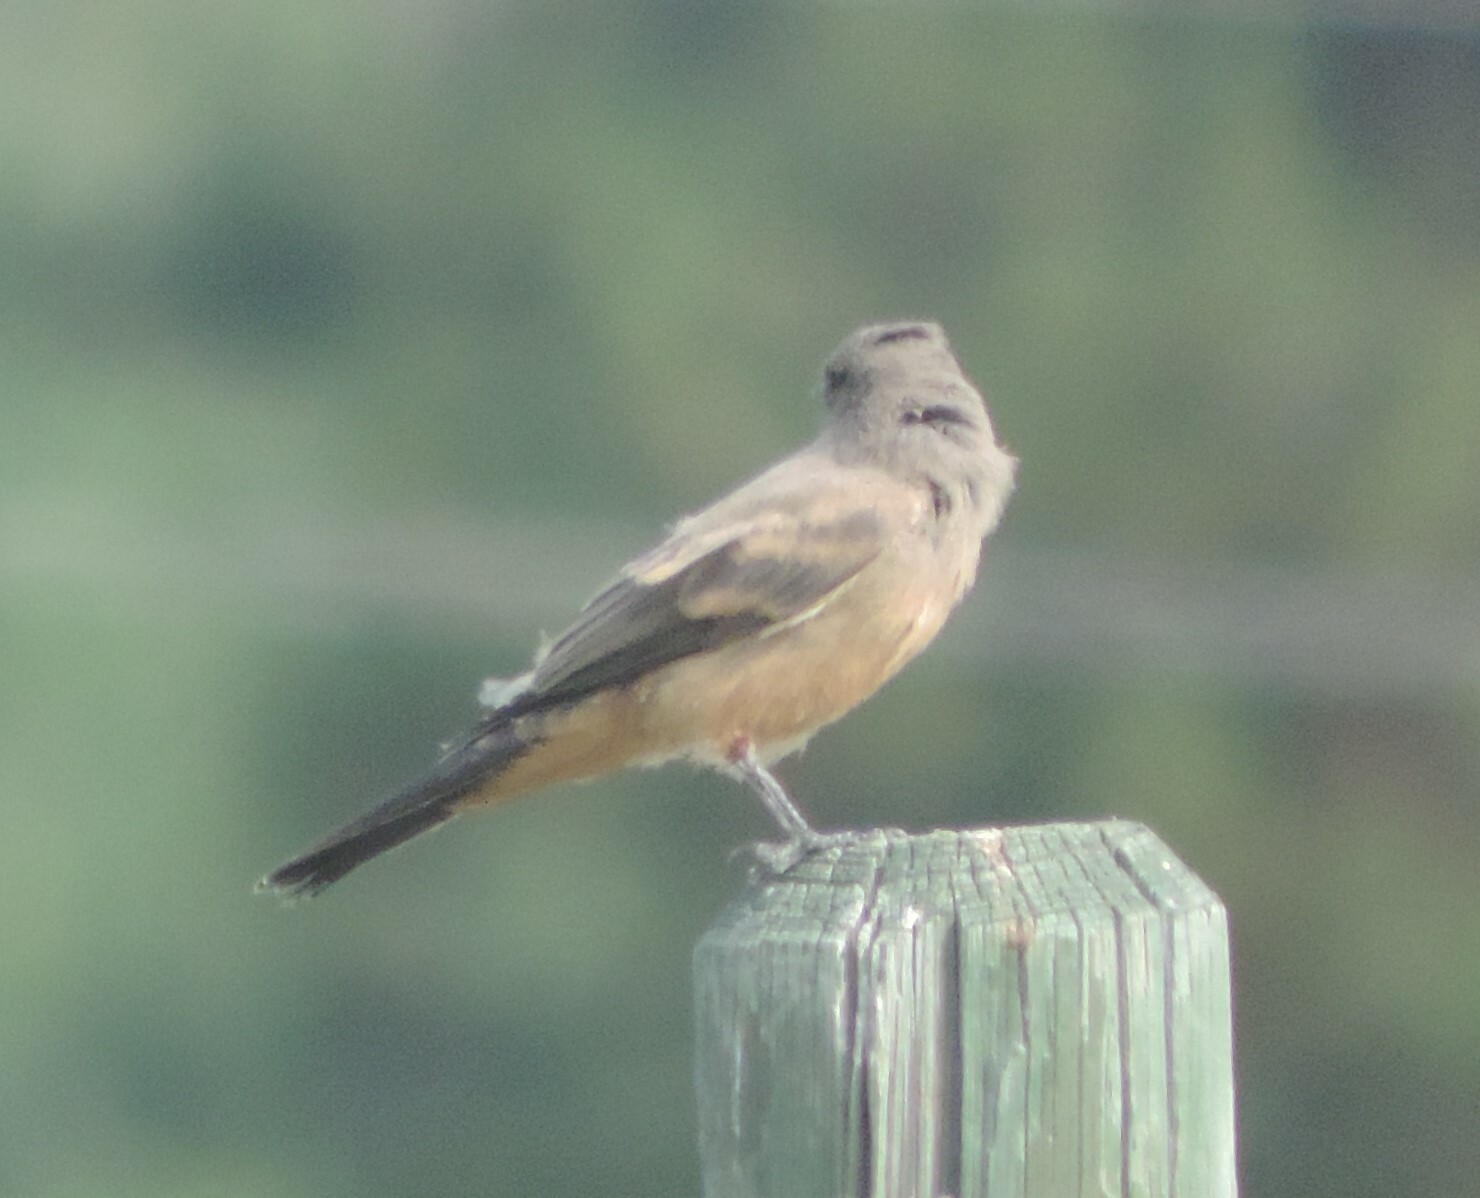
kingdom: Animalia
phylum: Chordata
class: Aves
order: Passeriformes
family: Tyrannidae
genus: Sayornis
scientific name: Sayornis saya
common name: Say's phoebe
